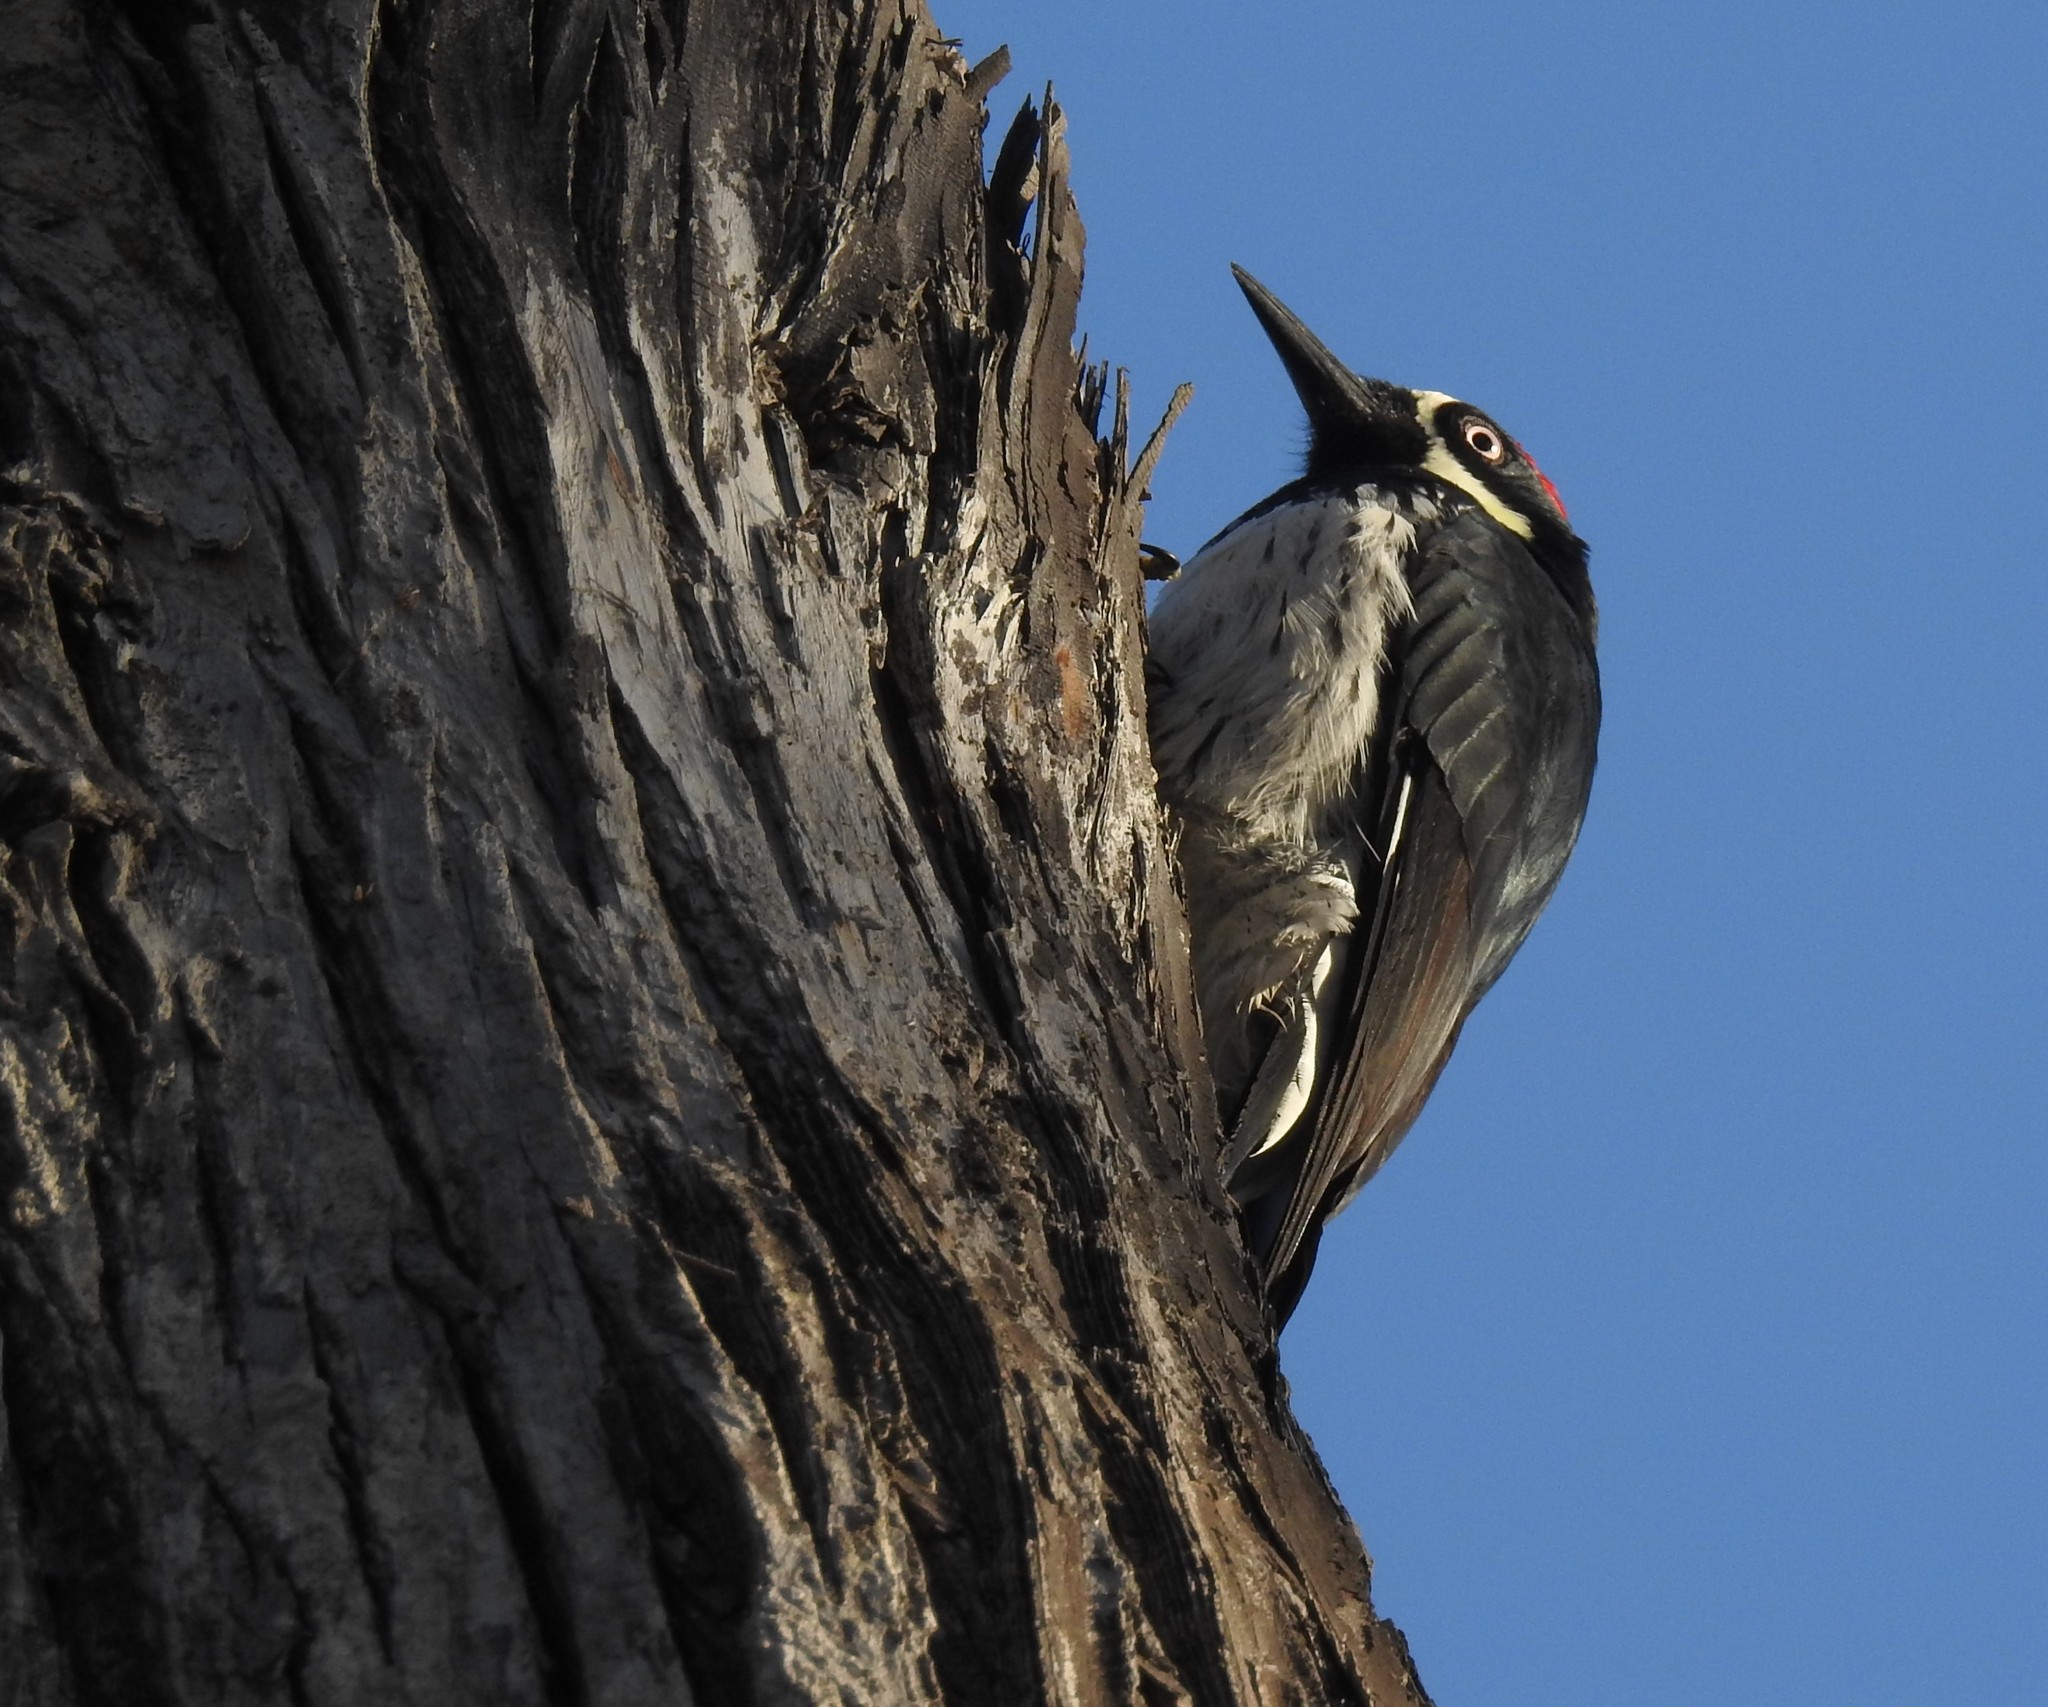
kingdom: Animalia
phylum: Chordata
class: Aves
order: Piciformes
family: Picidae
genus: Melanerpes
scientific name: Melanerpes formicivorus
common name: Acorn woodpecker
